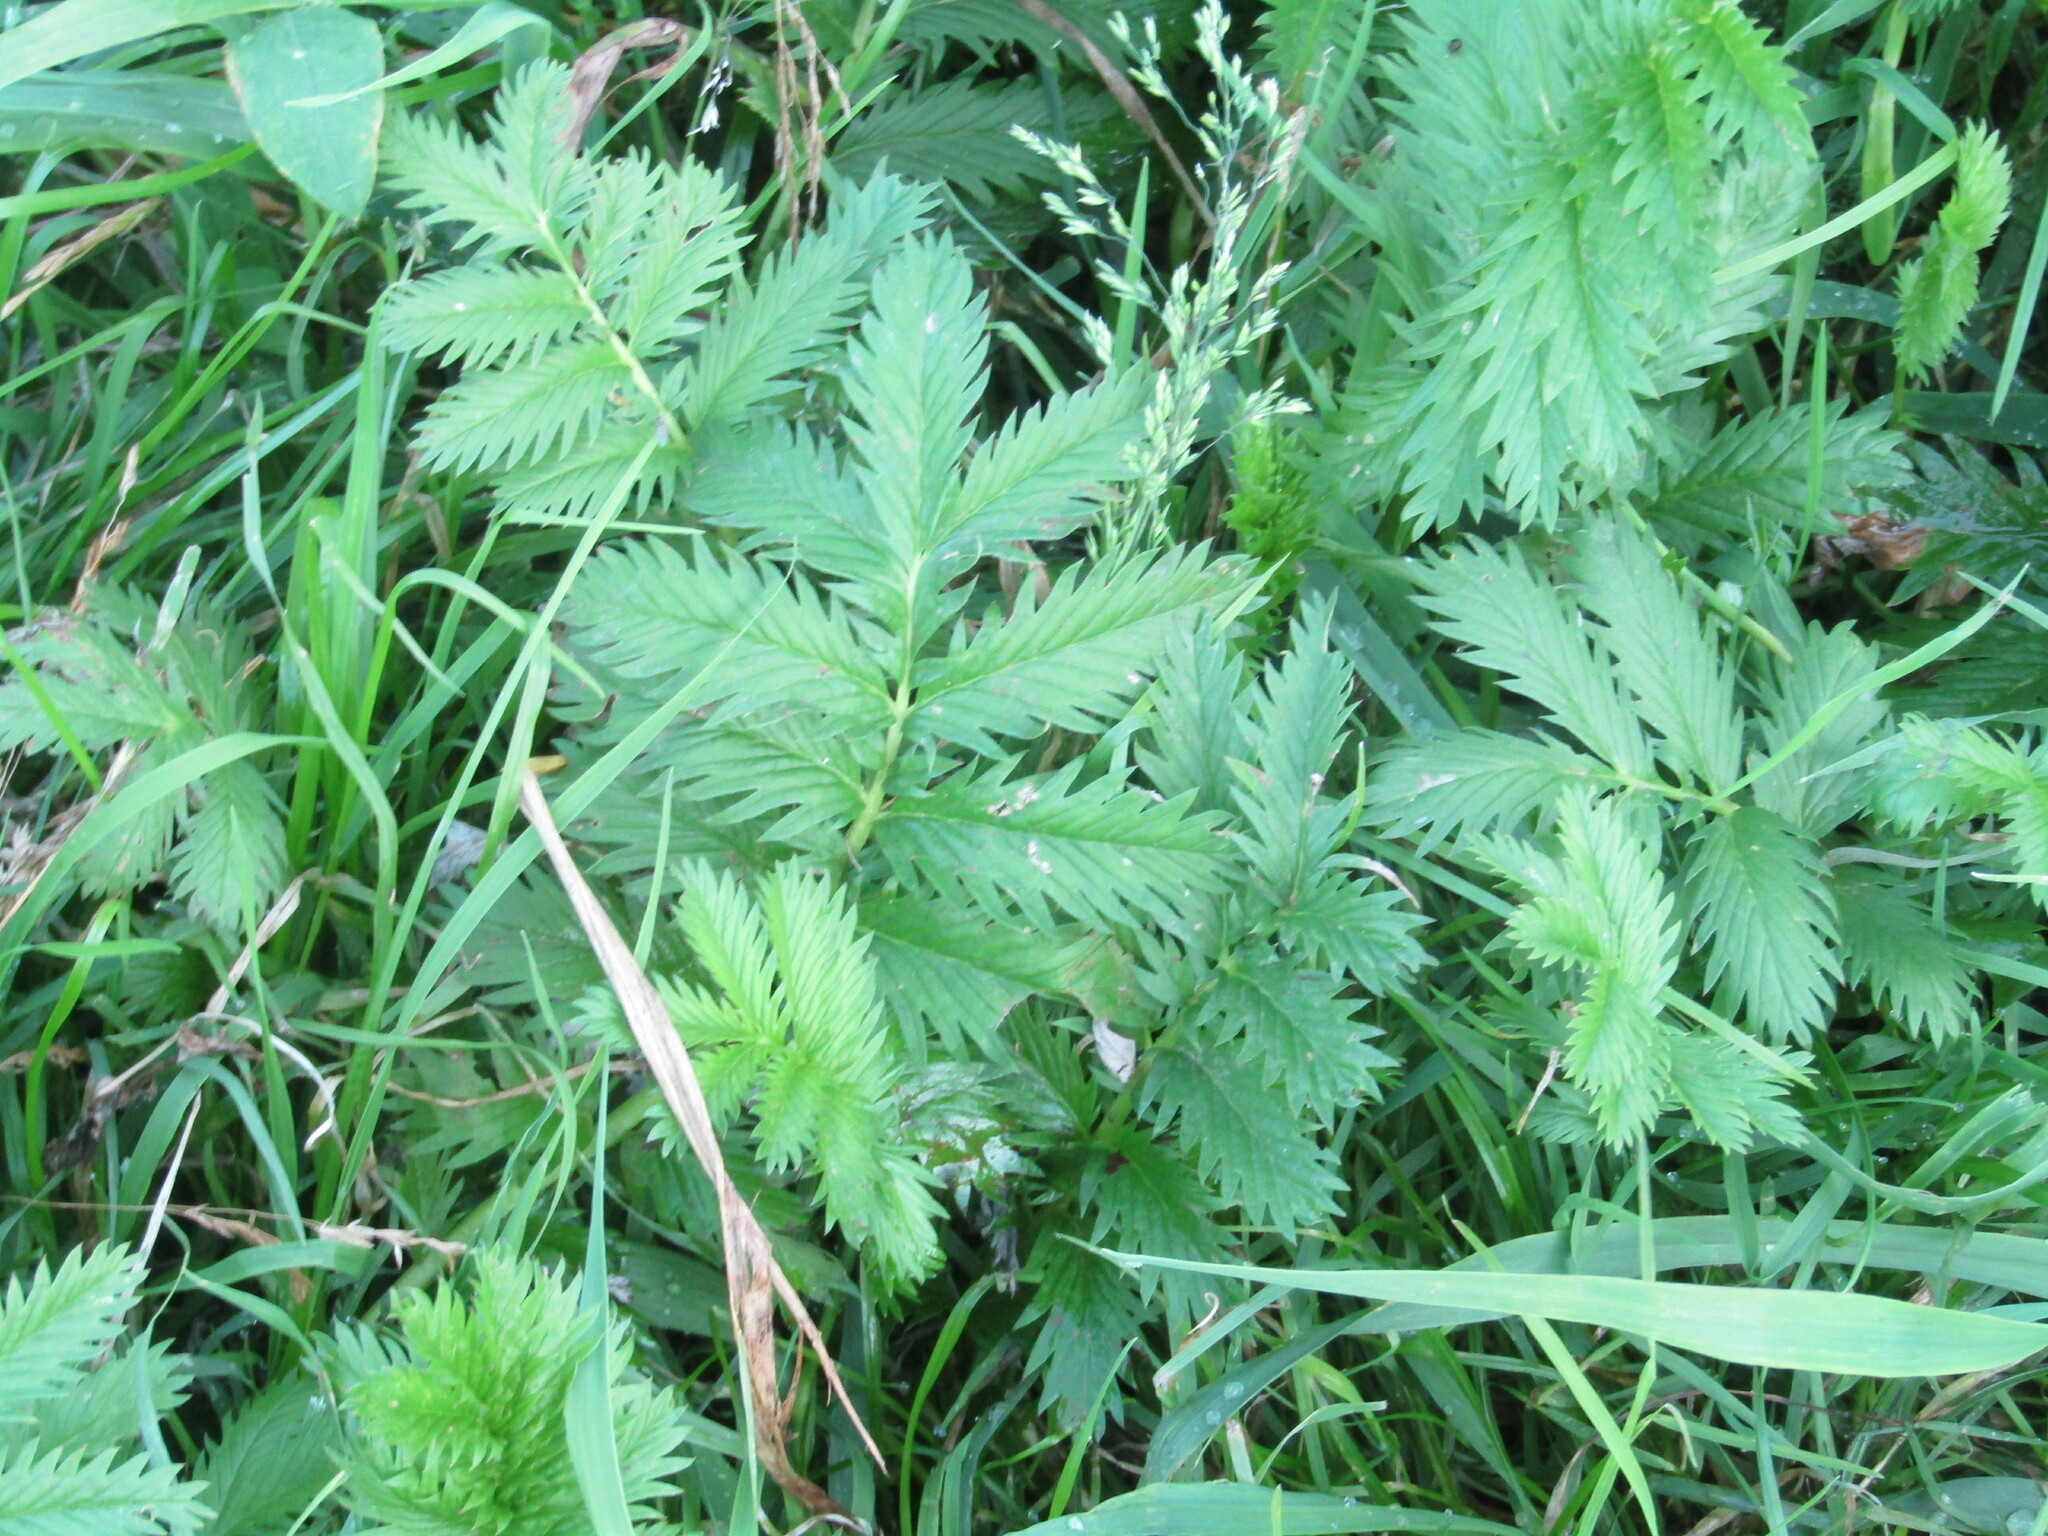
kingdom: Plantae
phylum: Tracheophyta
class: Magnoliopsida
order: Rosales
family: Rosaceae
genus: Argentina
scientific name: Argentina anserina
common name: Common silverweed
